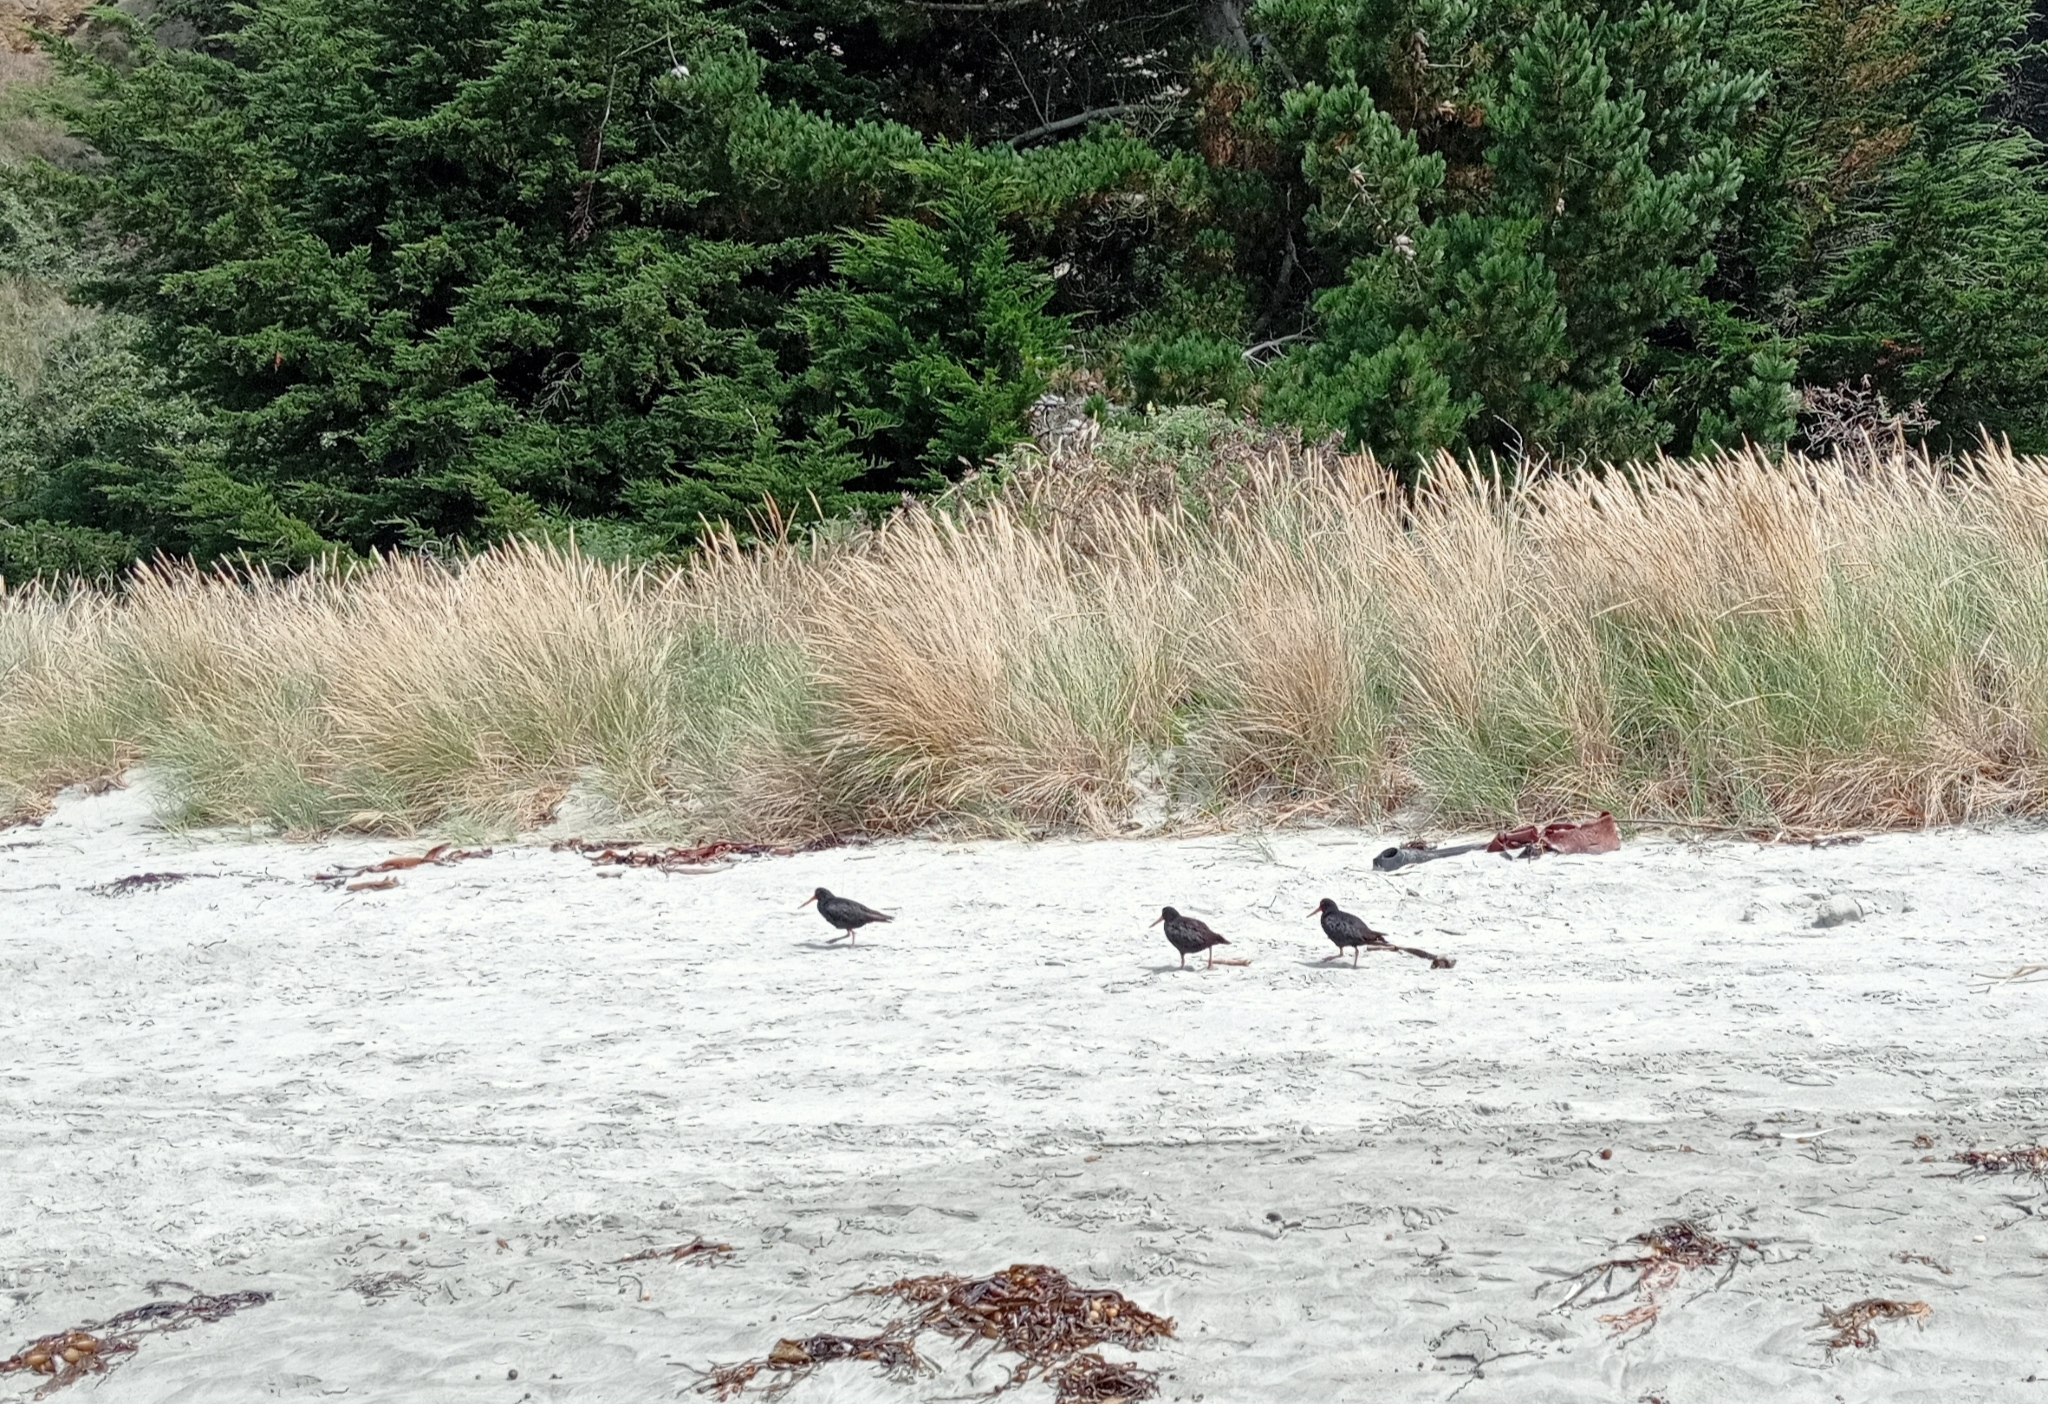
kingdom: Animalia
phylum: Chordata
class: Aves
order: Charadriiformes
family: Haematopodidae
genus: Haematopus
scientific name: Haematopus unicolor
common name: Variable oystercatcher
